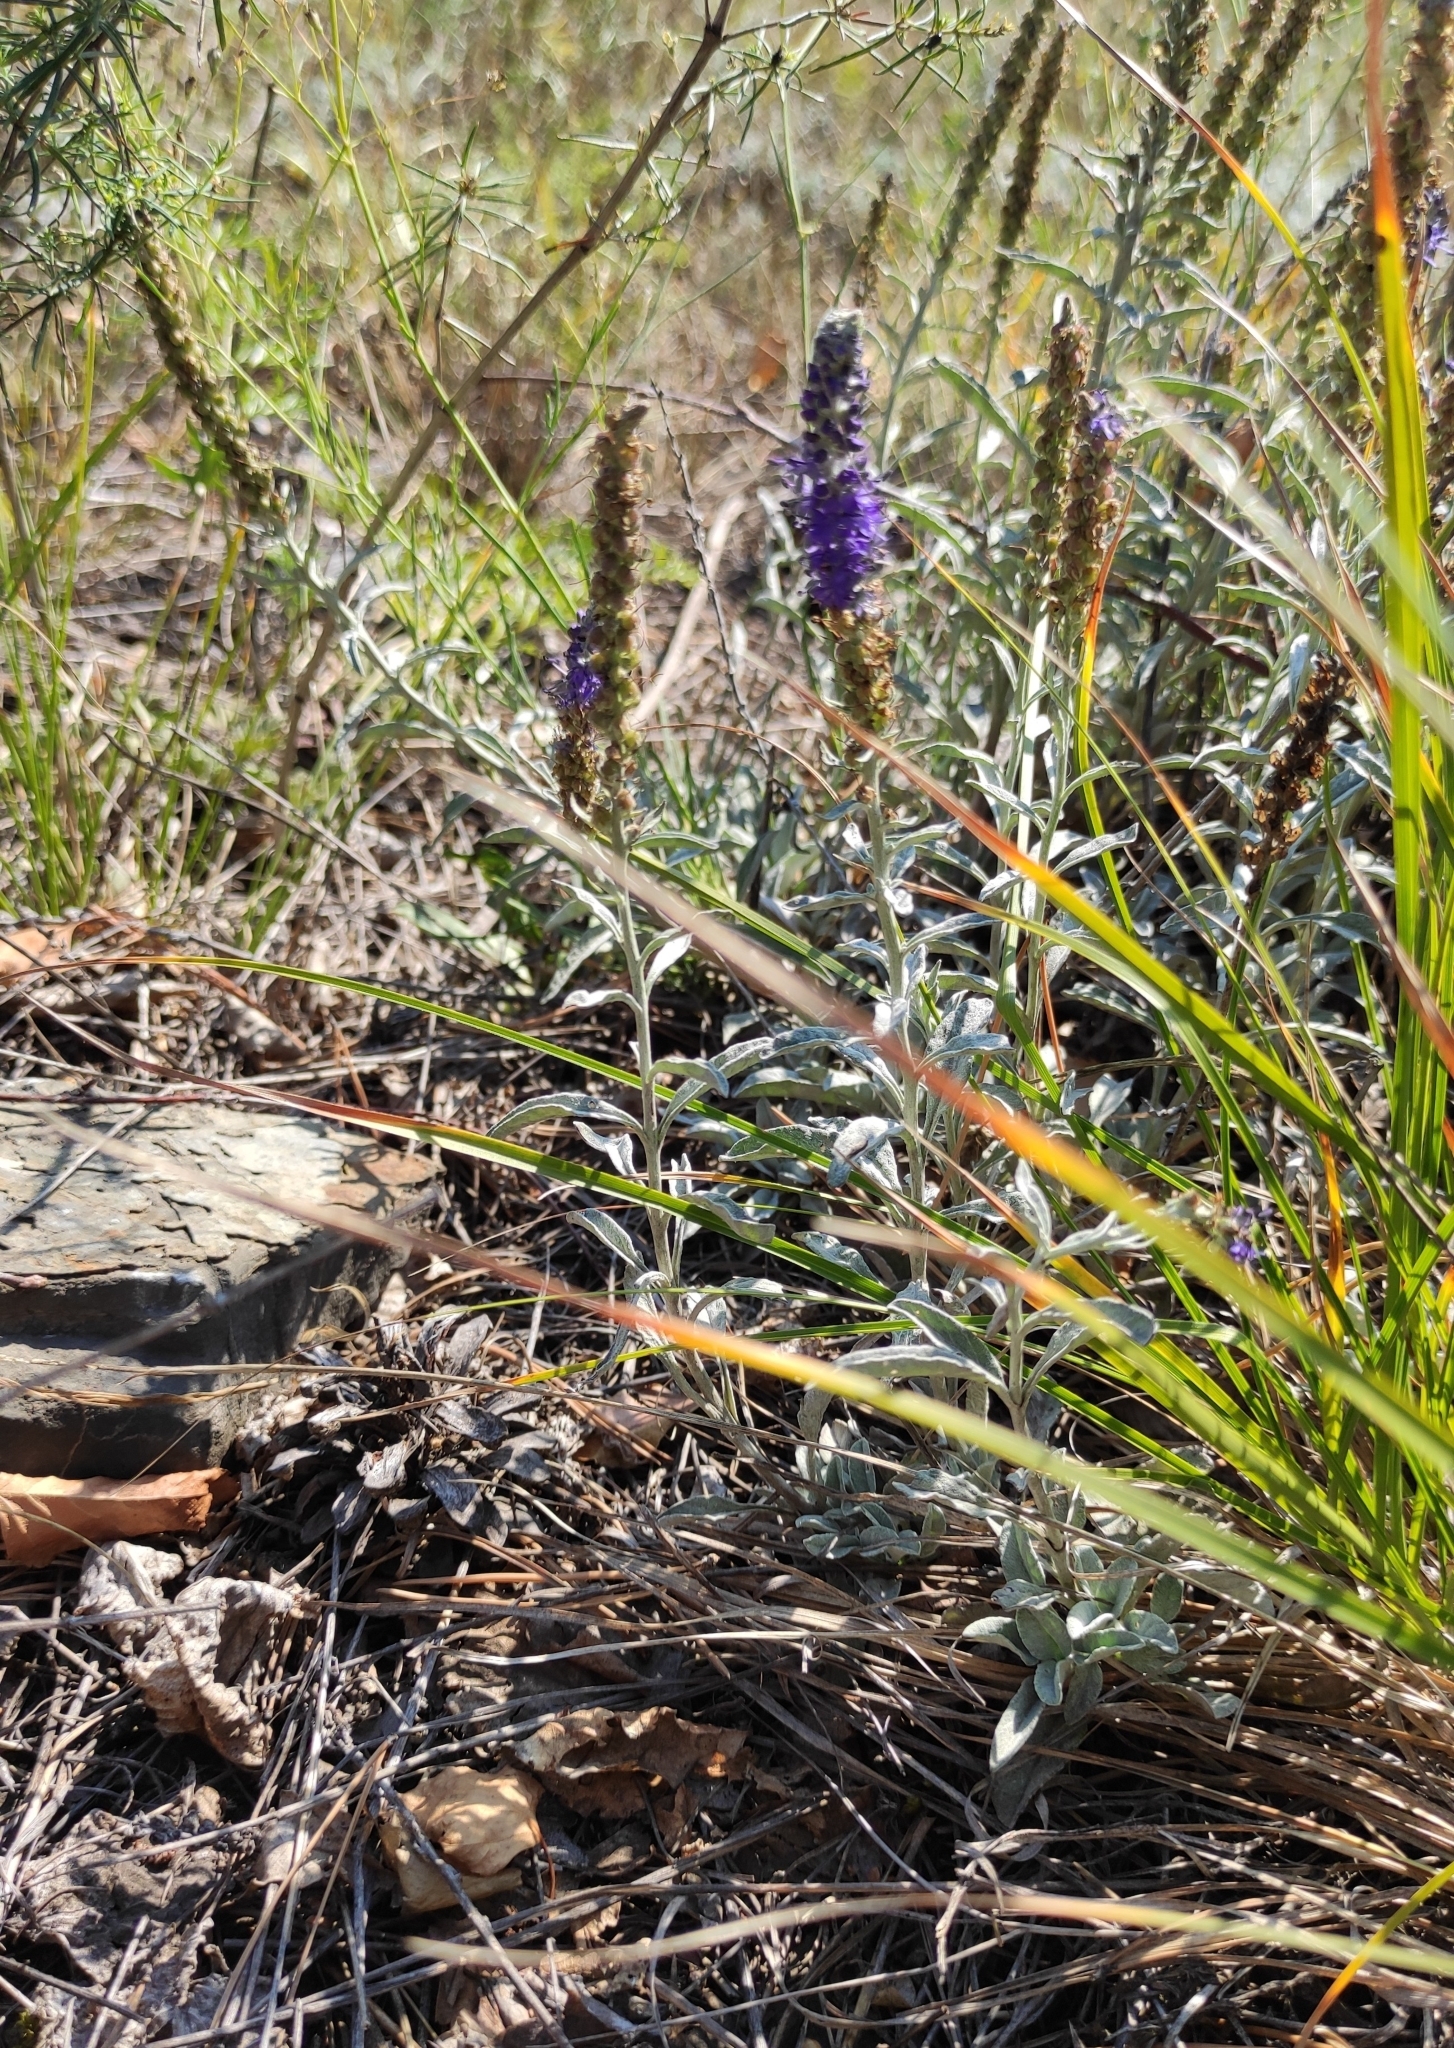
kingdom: Plantae
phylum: Tracheophyta
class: Magnoliopsida
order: Lamiales
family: Plantaginaceae
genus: Veronica
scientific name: Veronica incana
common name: Silver speedwell
